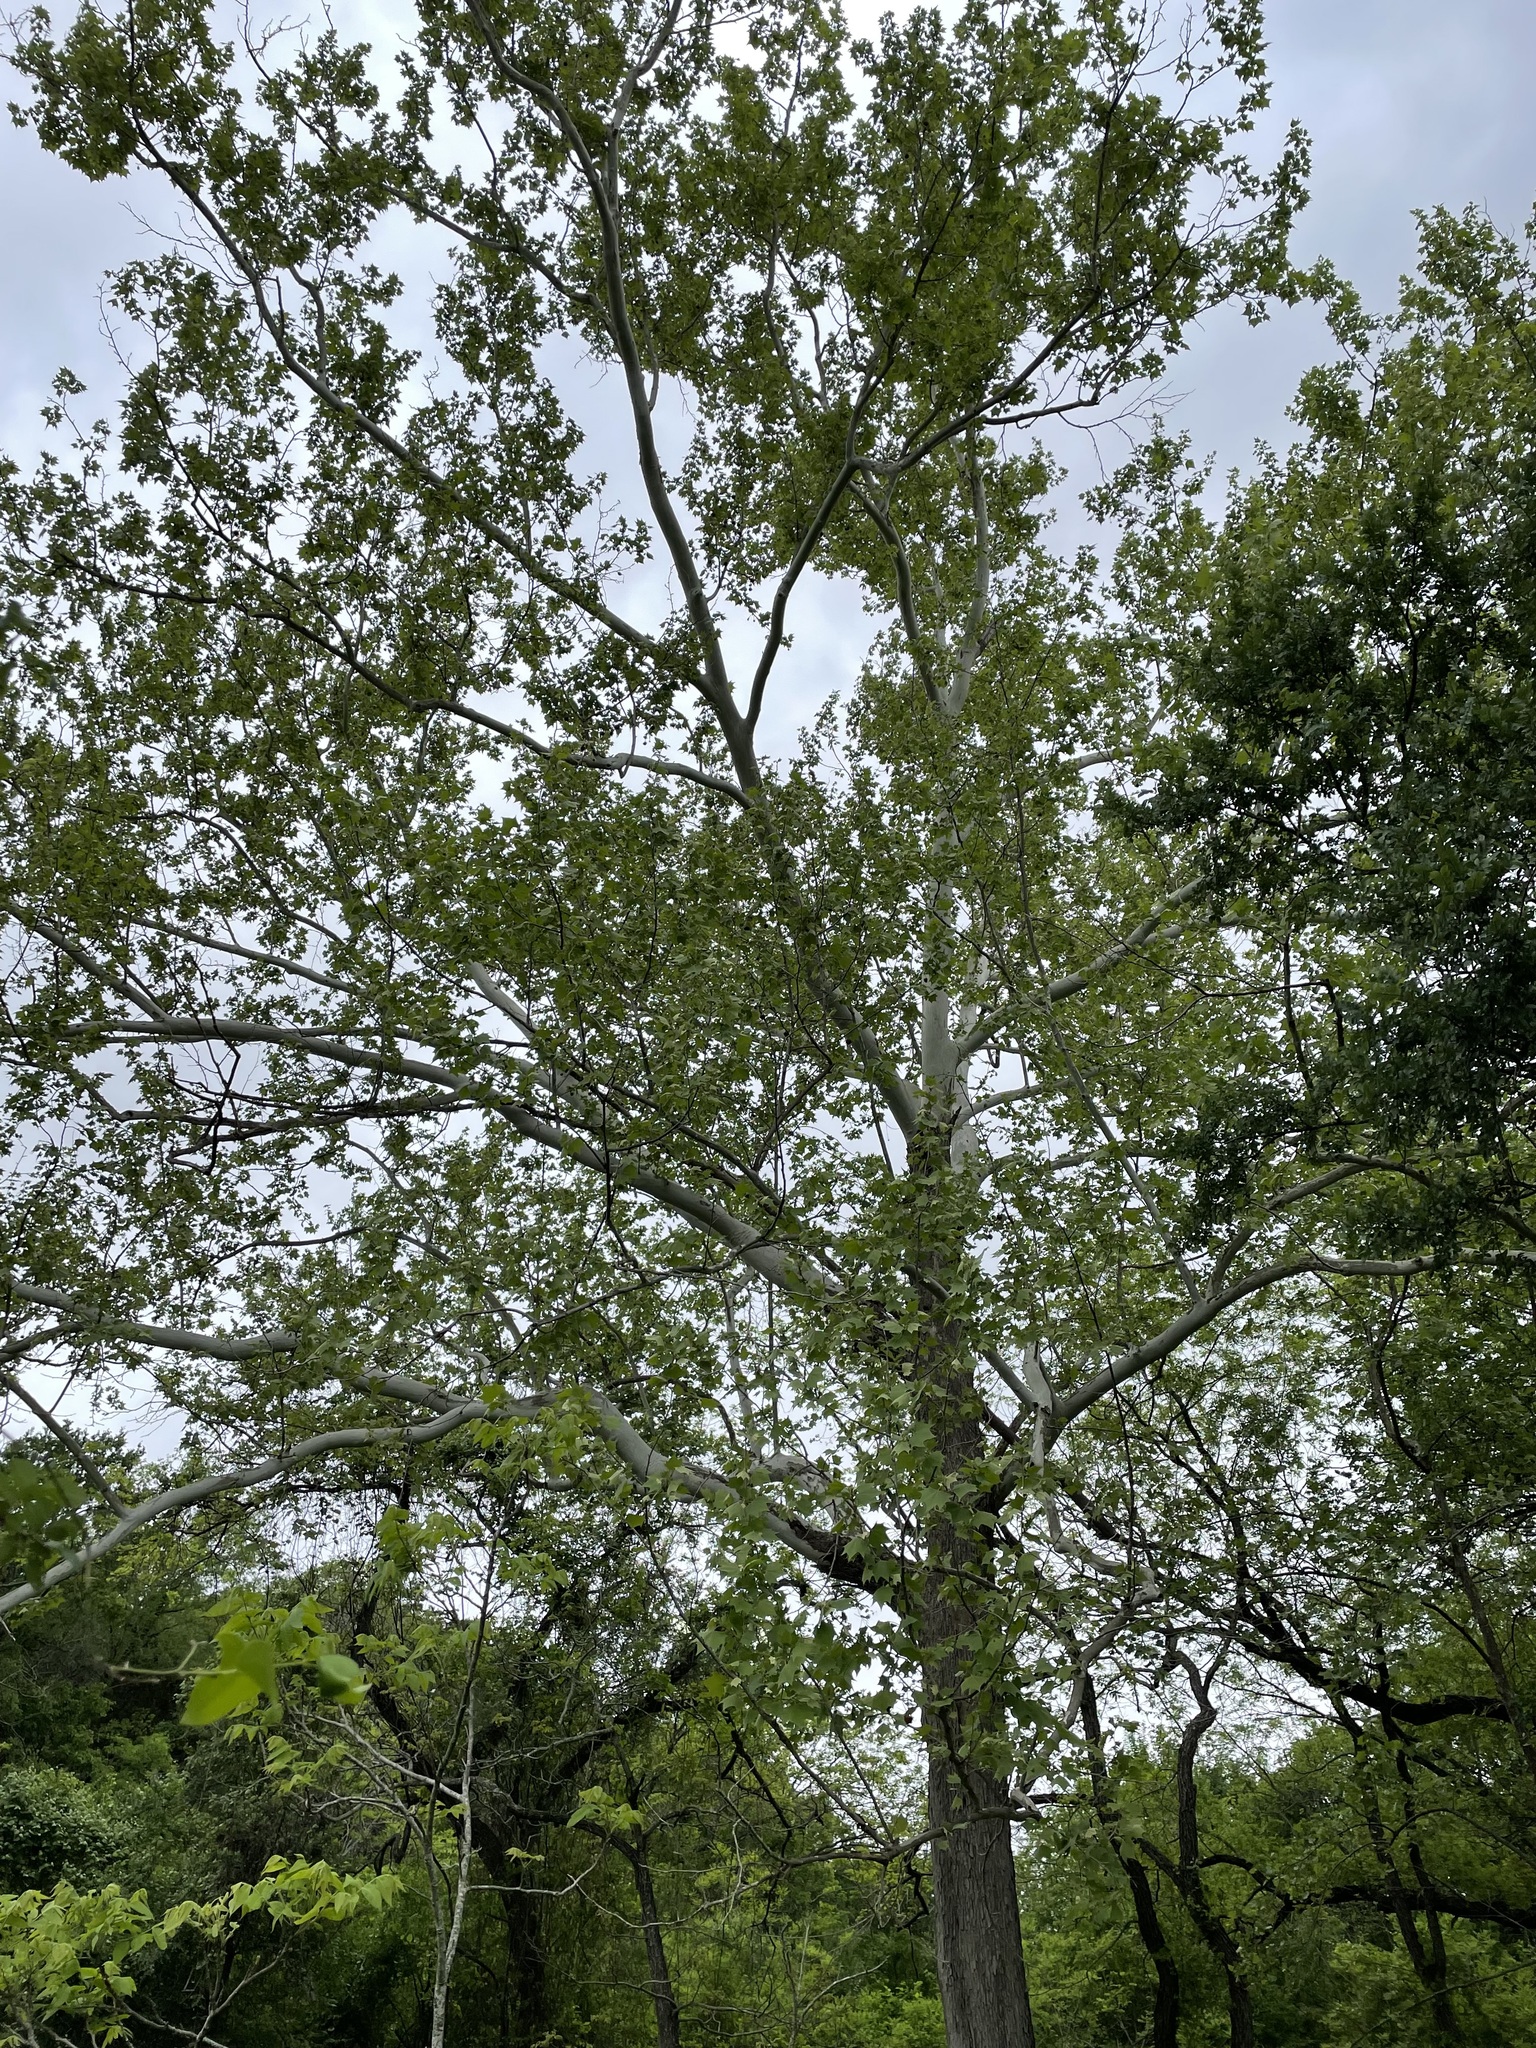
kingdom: Plantae
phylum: Tracheophyta
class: Magnoliopsida
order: Proteales
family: Platanaceae
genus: Platanus
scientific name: Platanus occidentalis
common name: American sycamore
